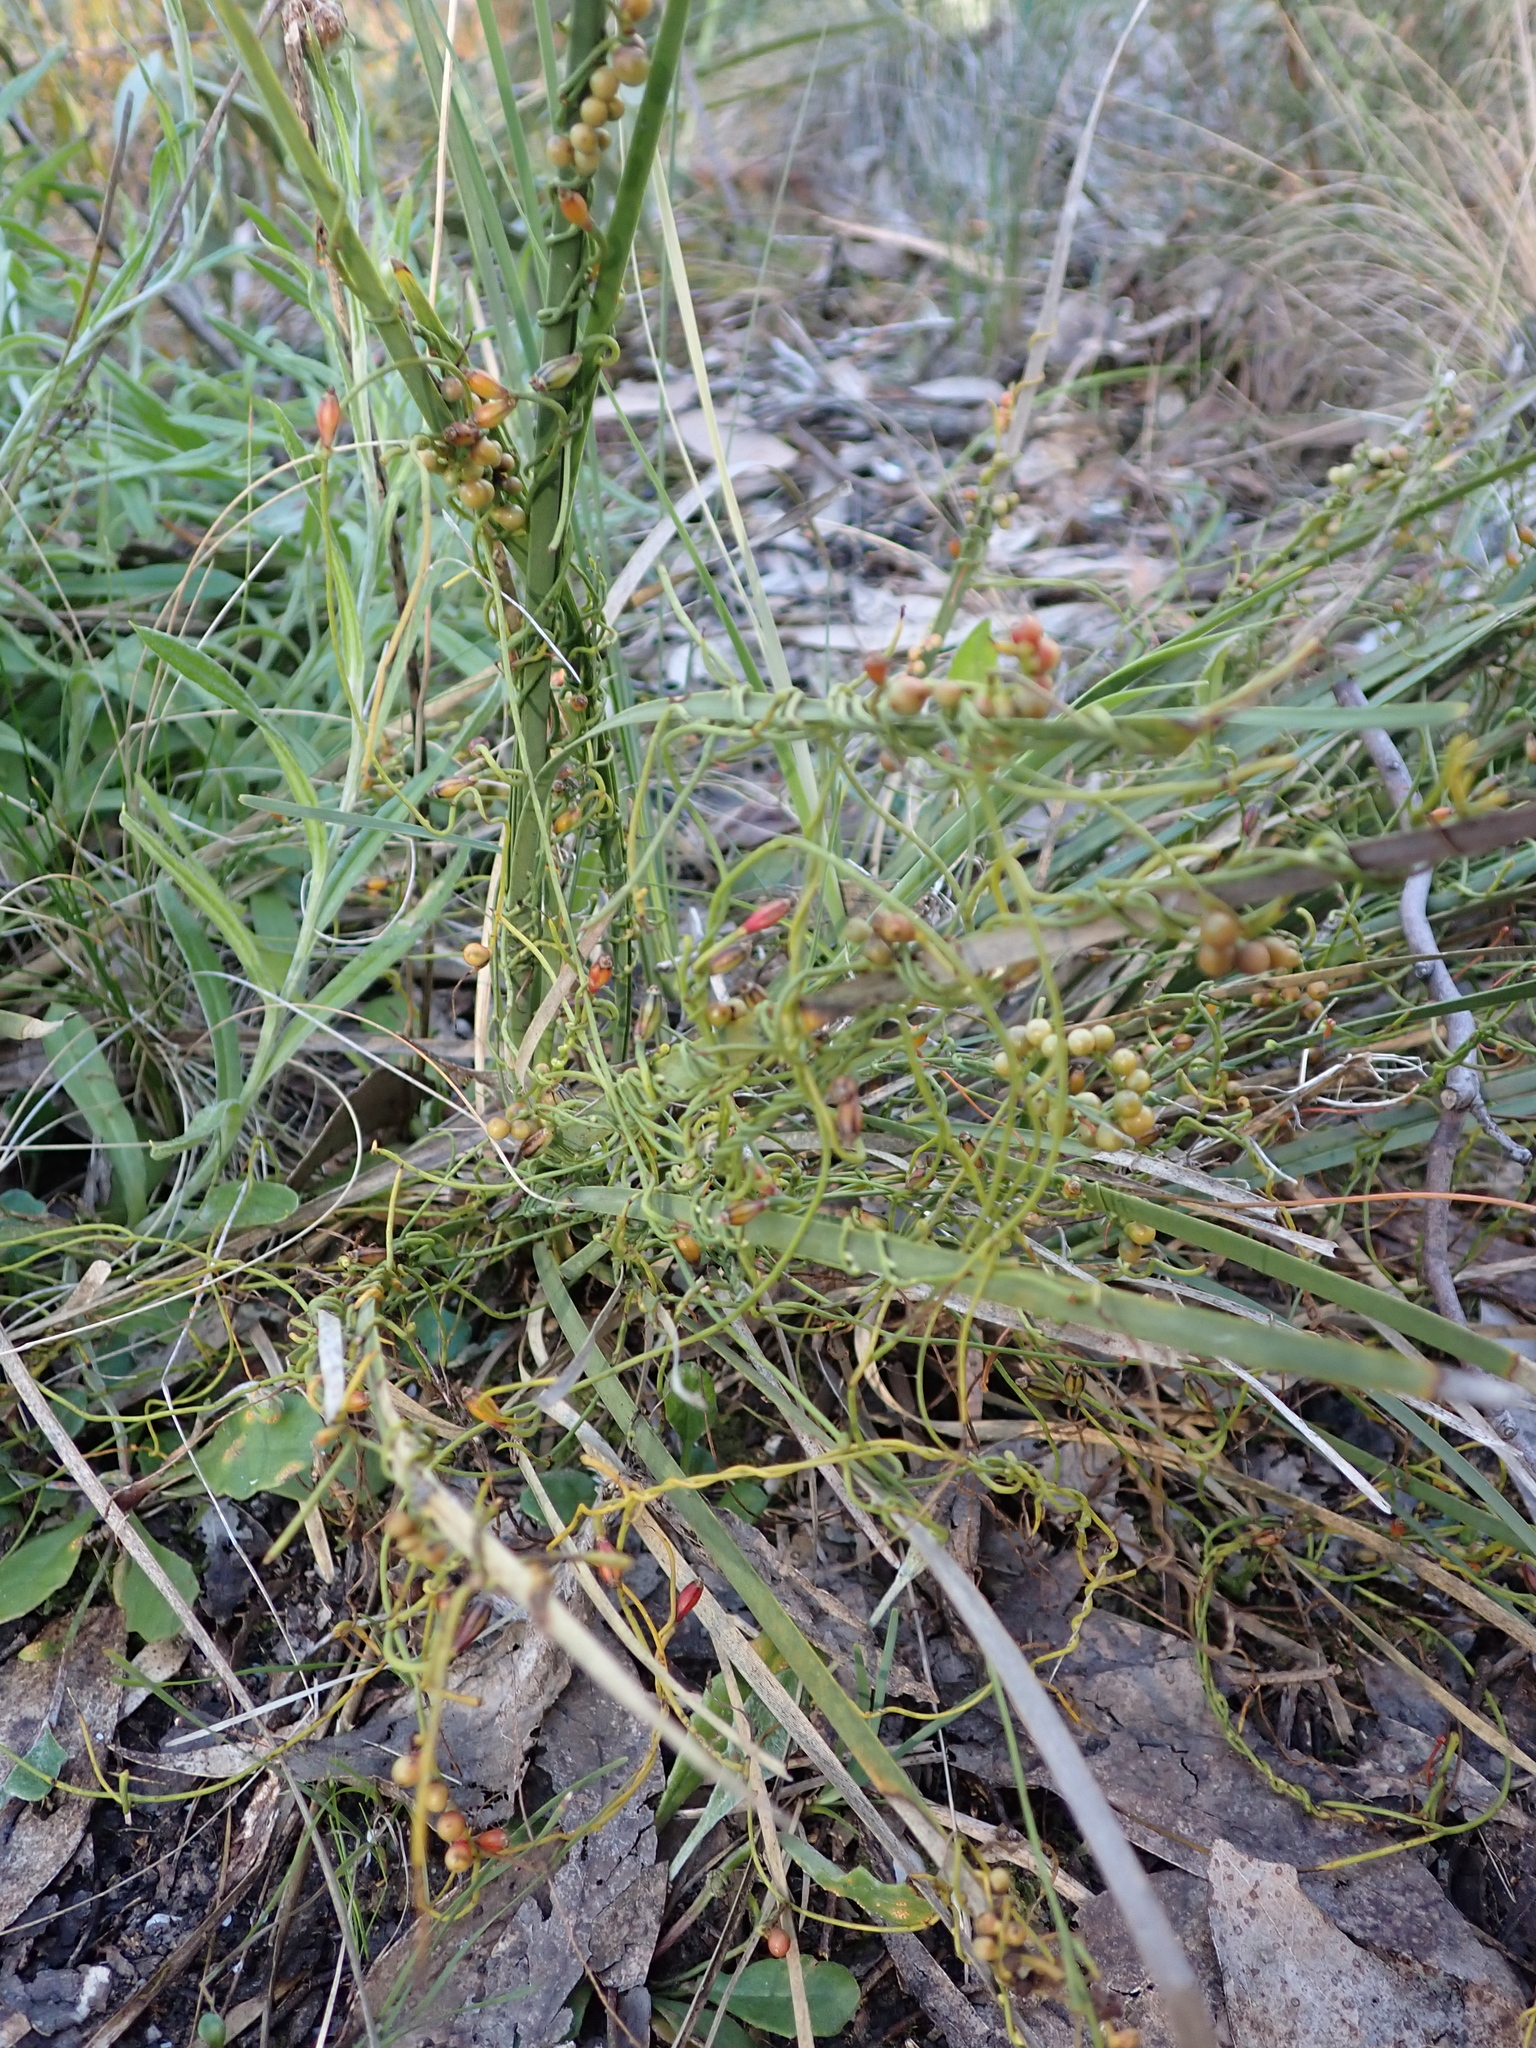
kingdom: Plantae
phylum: Tracheophyta
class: Magnoliopsida
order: Laurales
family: Lauraceae
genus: Cassytha
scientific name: Cassytha glabella
